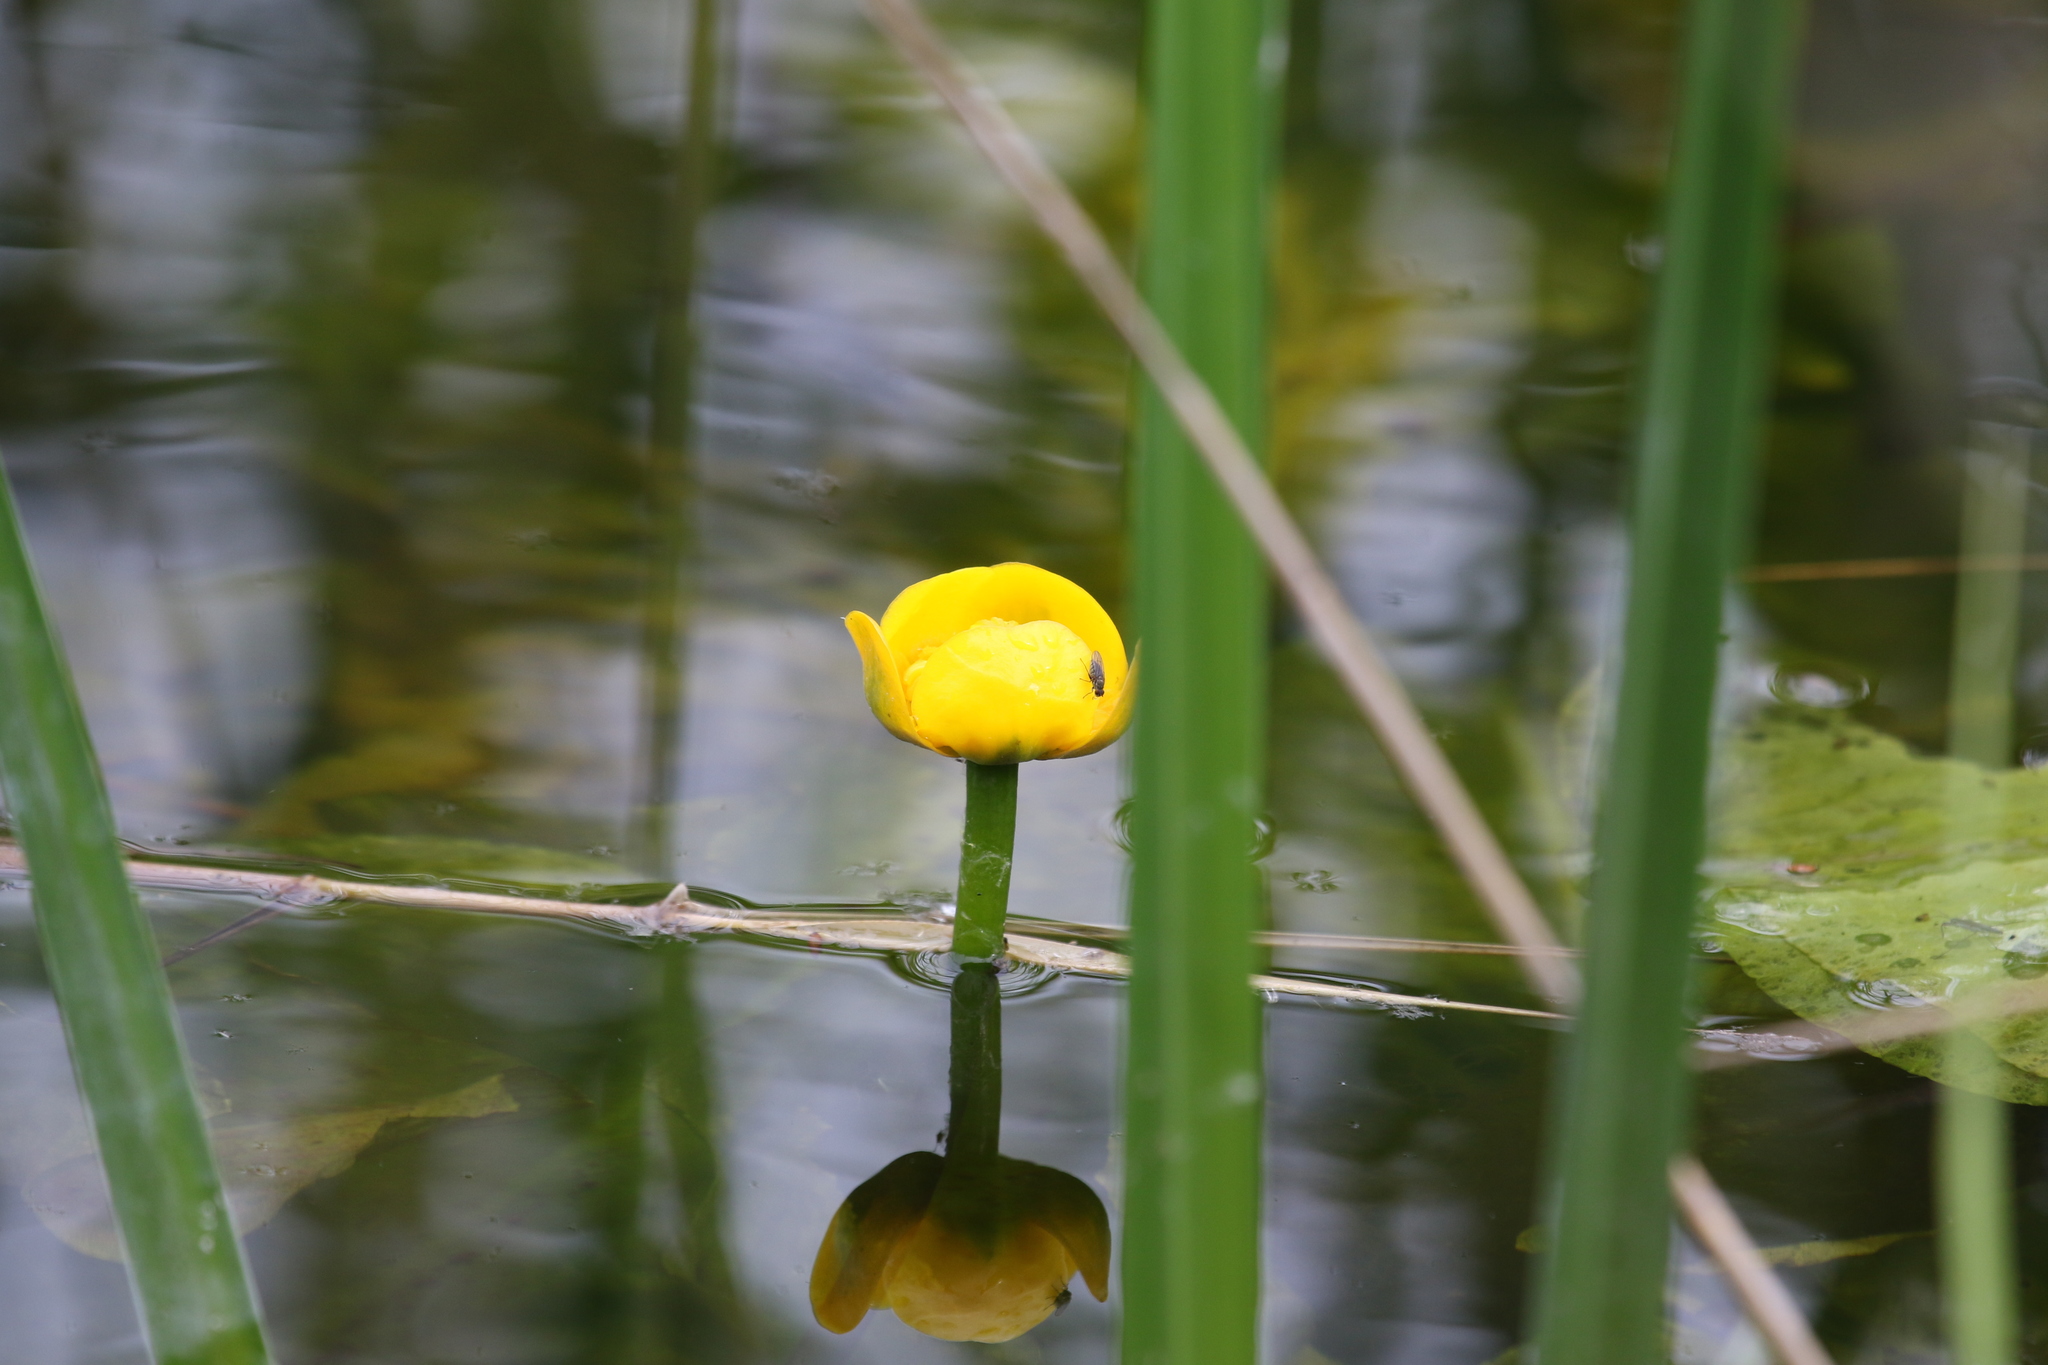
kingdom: Plantae
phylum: Tracheophyta
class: Magnoliopsida
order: Nymphaeales
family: Nymphaeaceae
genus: Nuphar
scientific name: Nuphar lutea
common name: Yellow water-lily
